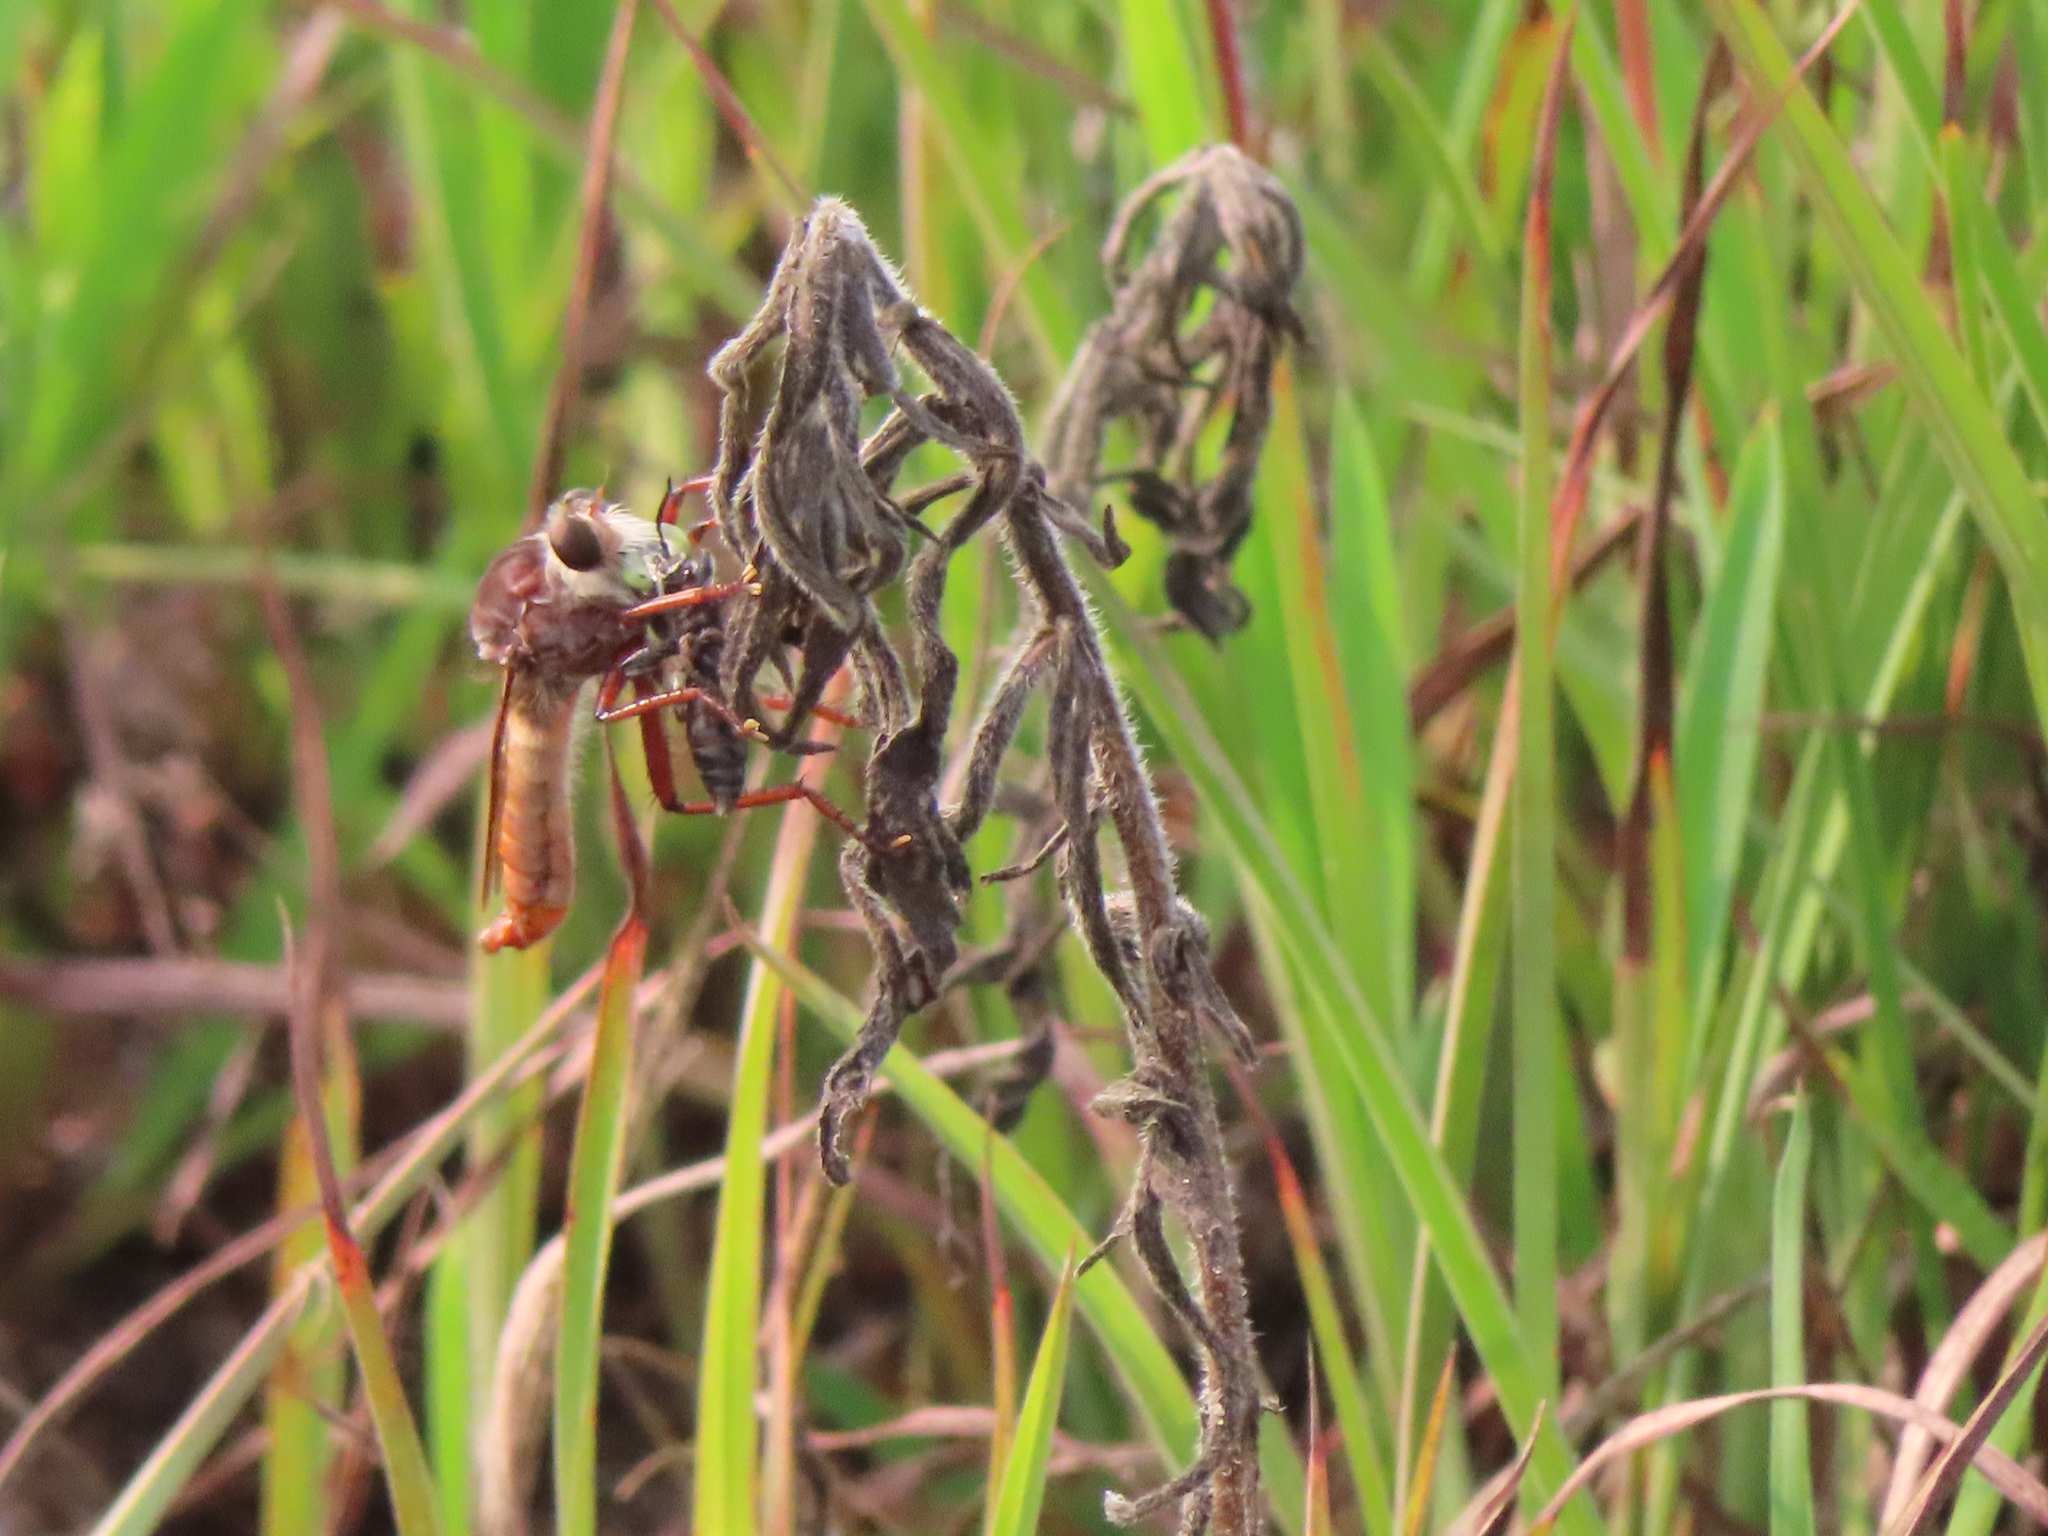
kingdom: Animalia
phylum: Arthropoda
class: Insecta
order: Diptera
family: Asilidae
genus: Proctacanthus
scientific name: Proctacanthus hinei
